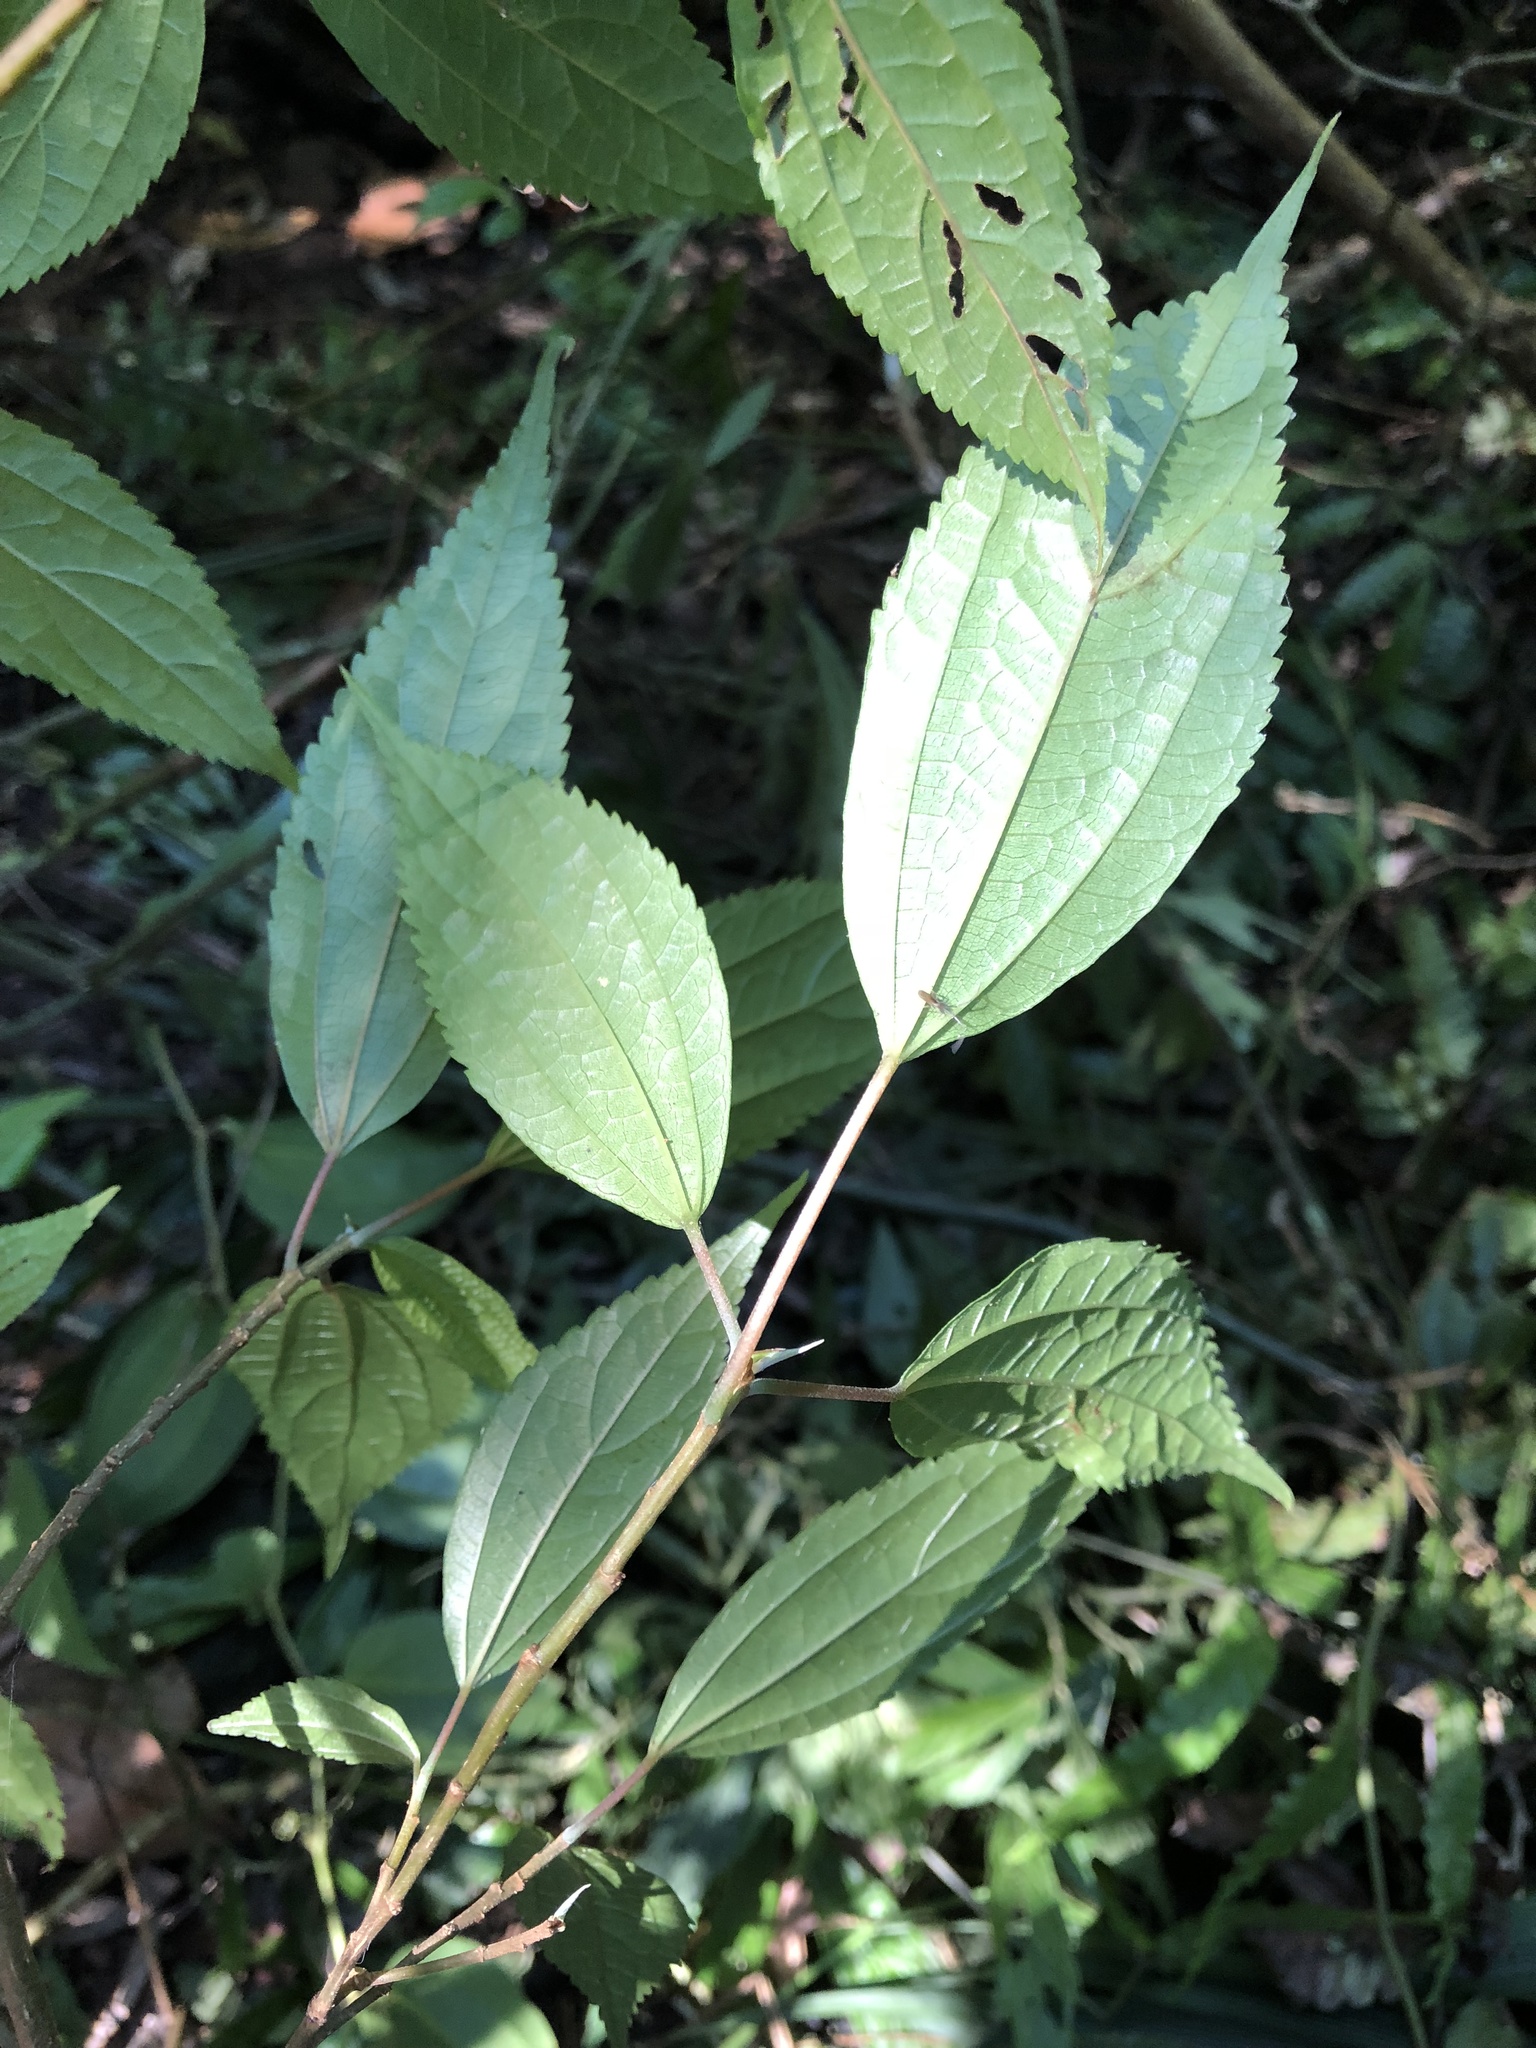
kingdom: Plantae
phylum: Tracheophyta
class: Magnoliopsida
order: Rosales
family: Urticaceae
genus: Oreocnide
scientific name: Oreocnide pedunculata
